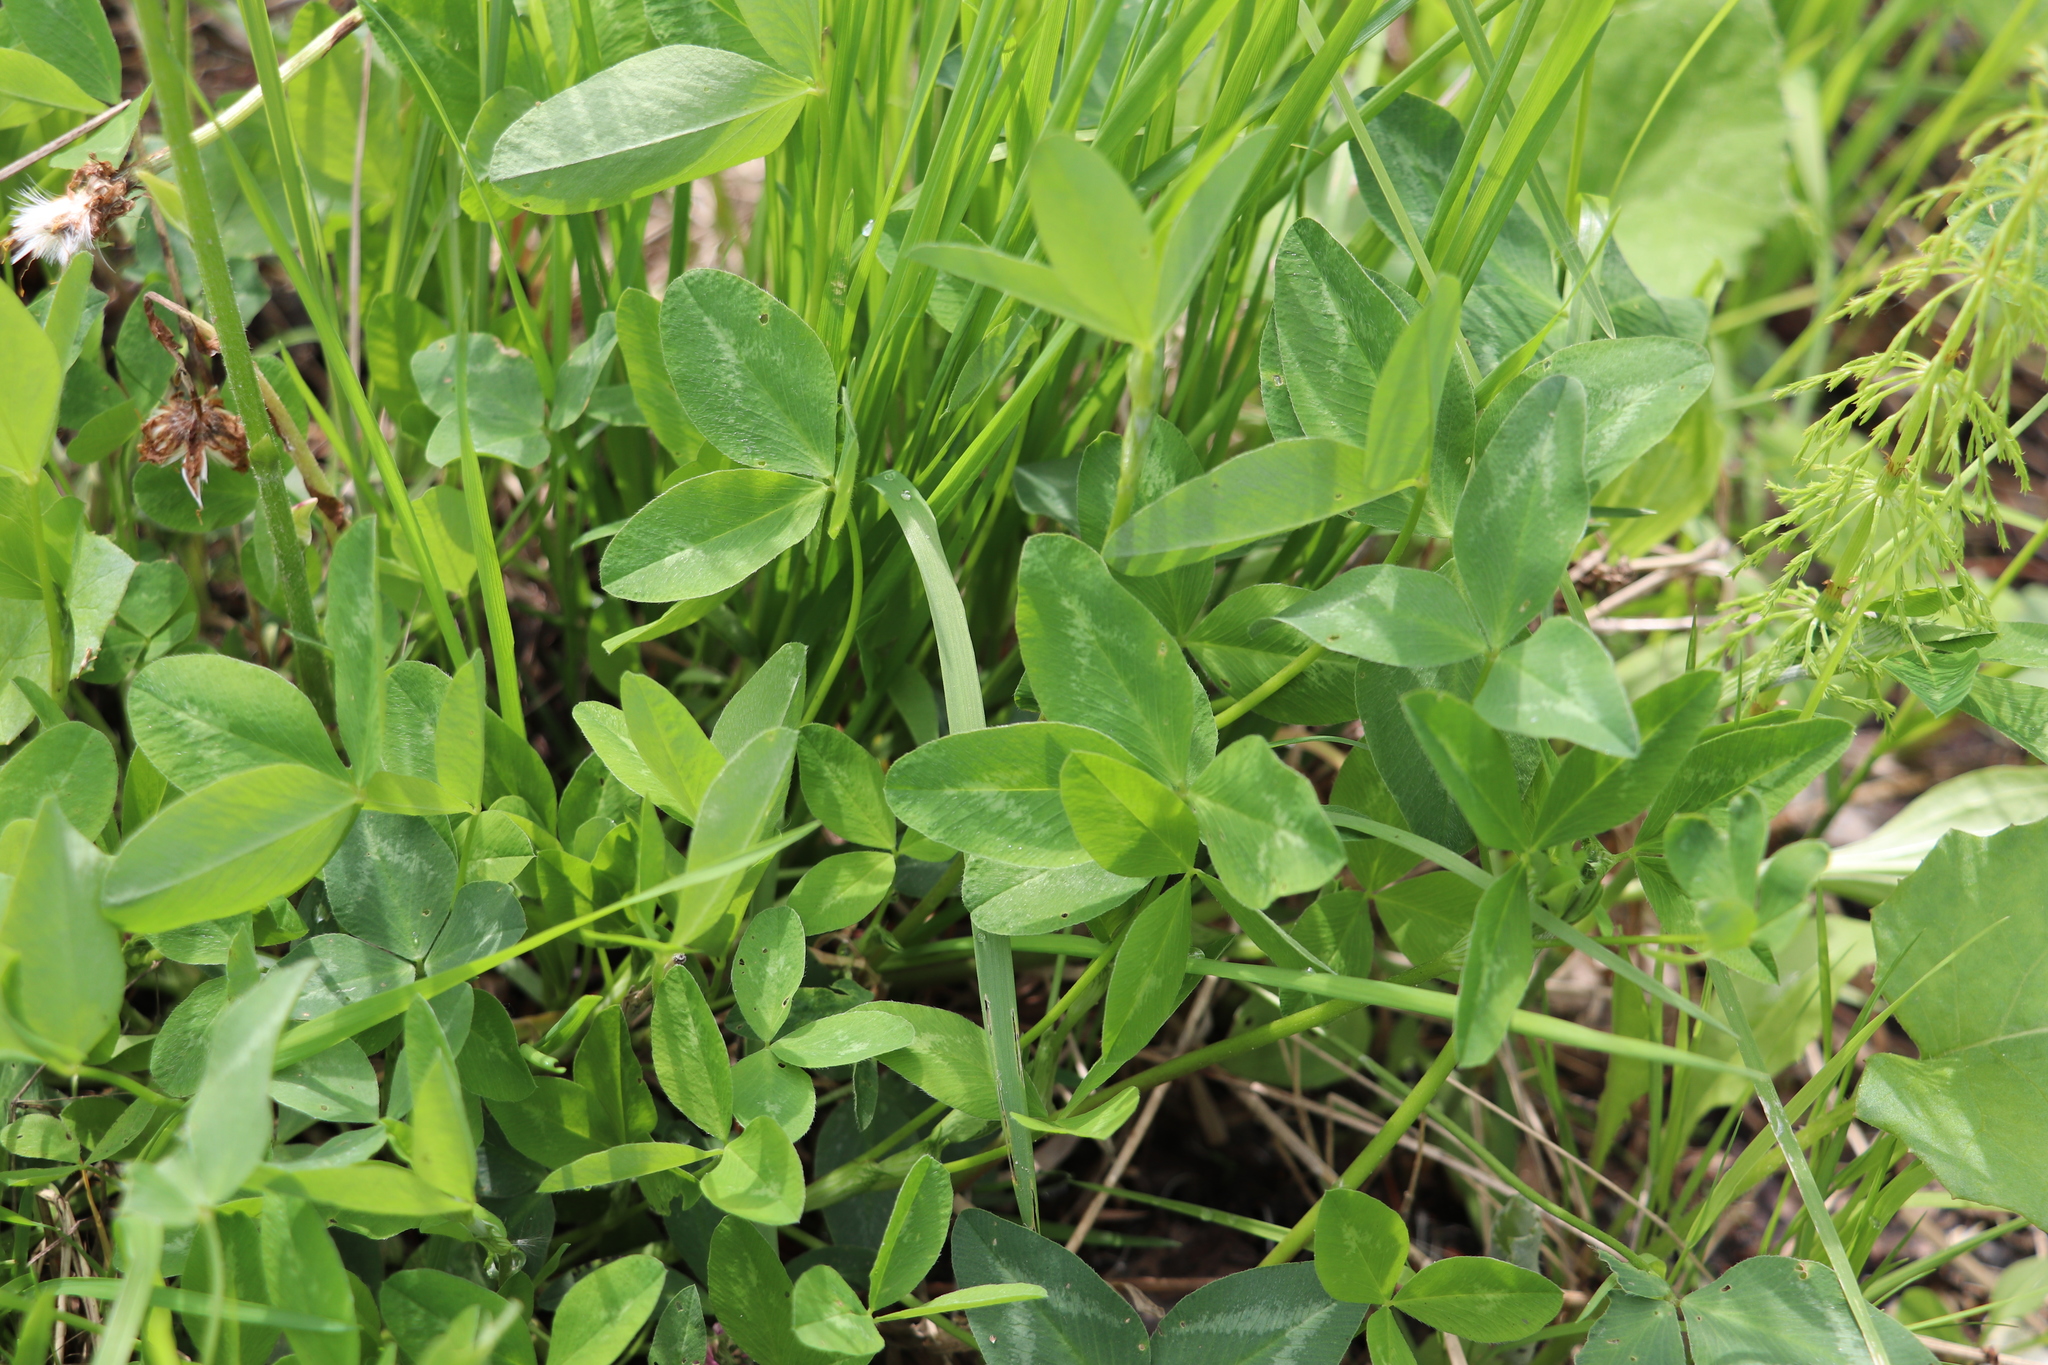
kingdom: Plantae
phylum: Tracheophyta
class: Magnoliopsida
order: Fabales
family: Fabaceae
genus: Trifolium
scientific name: Trifolium pratense
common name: Red clover
